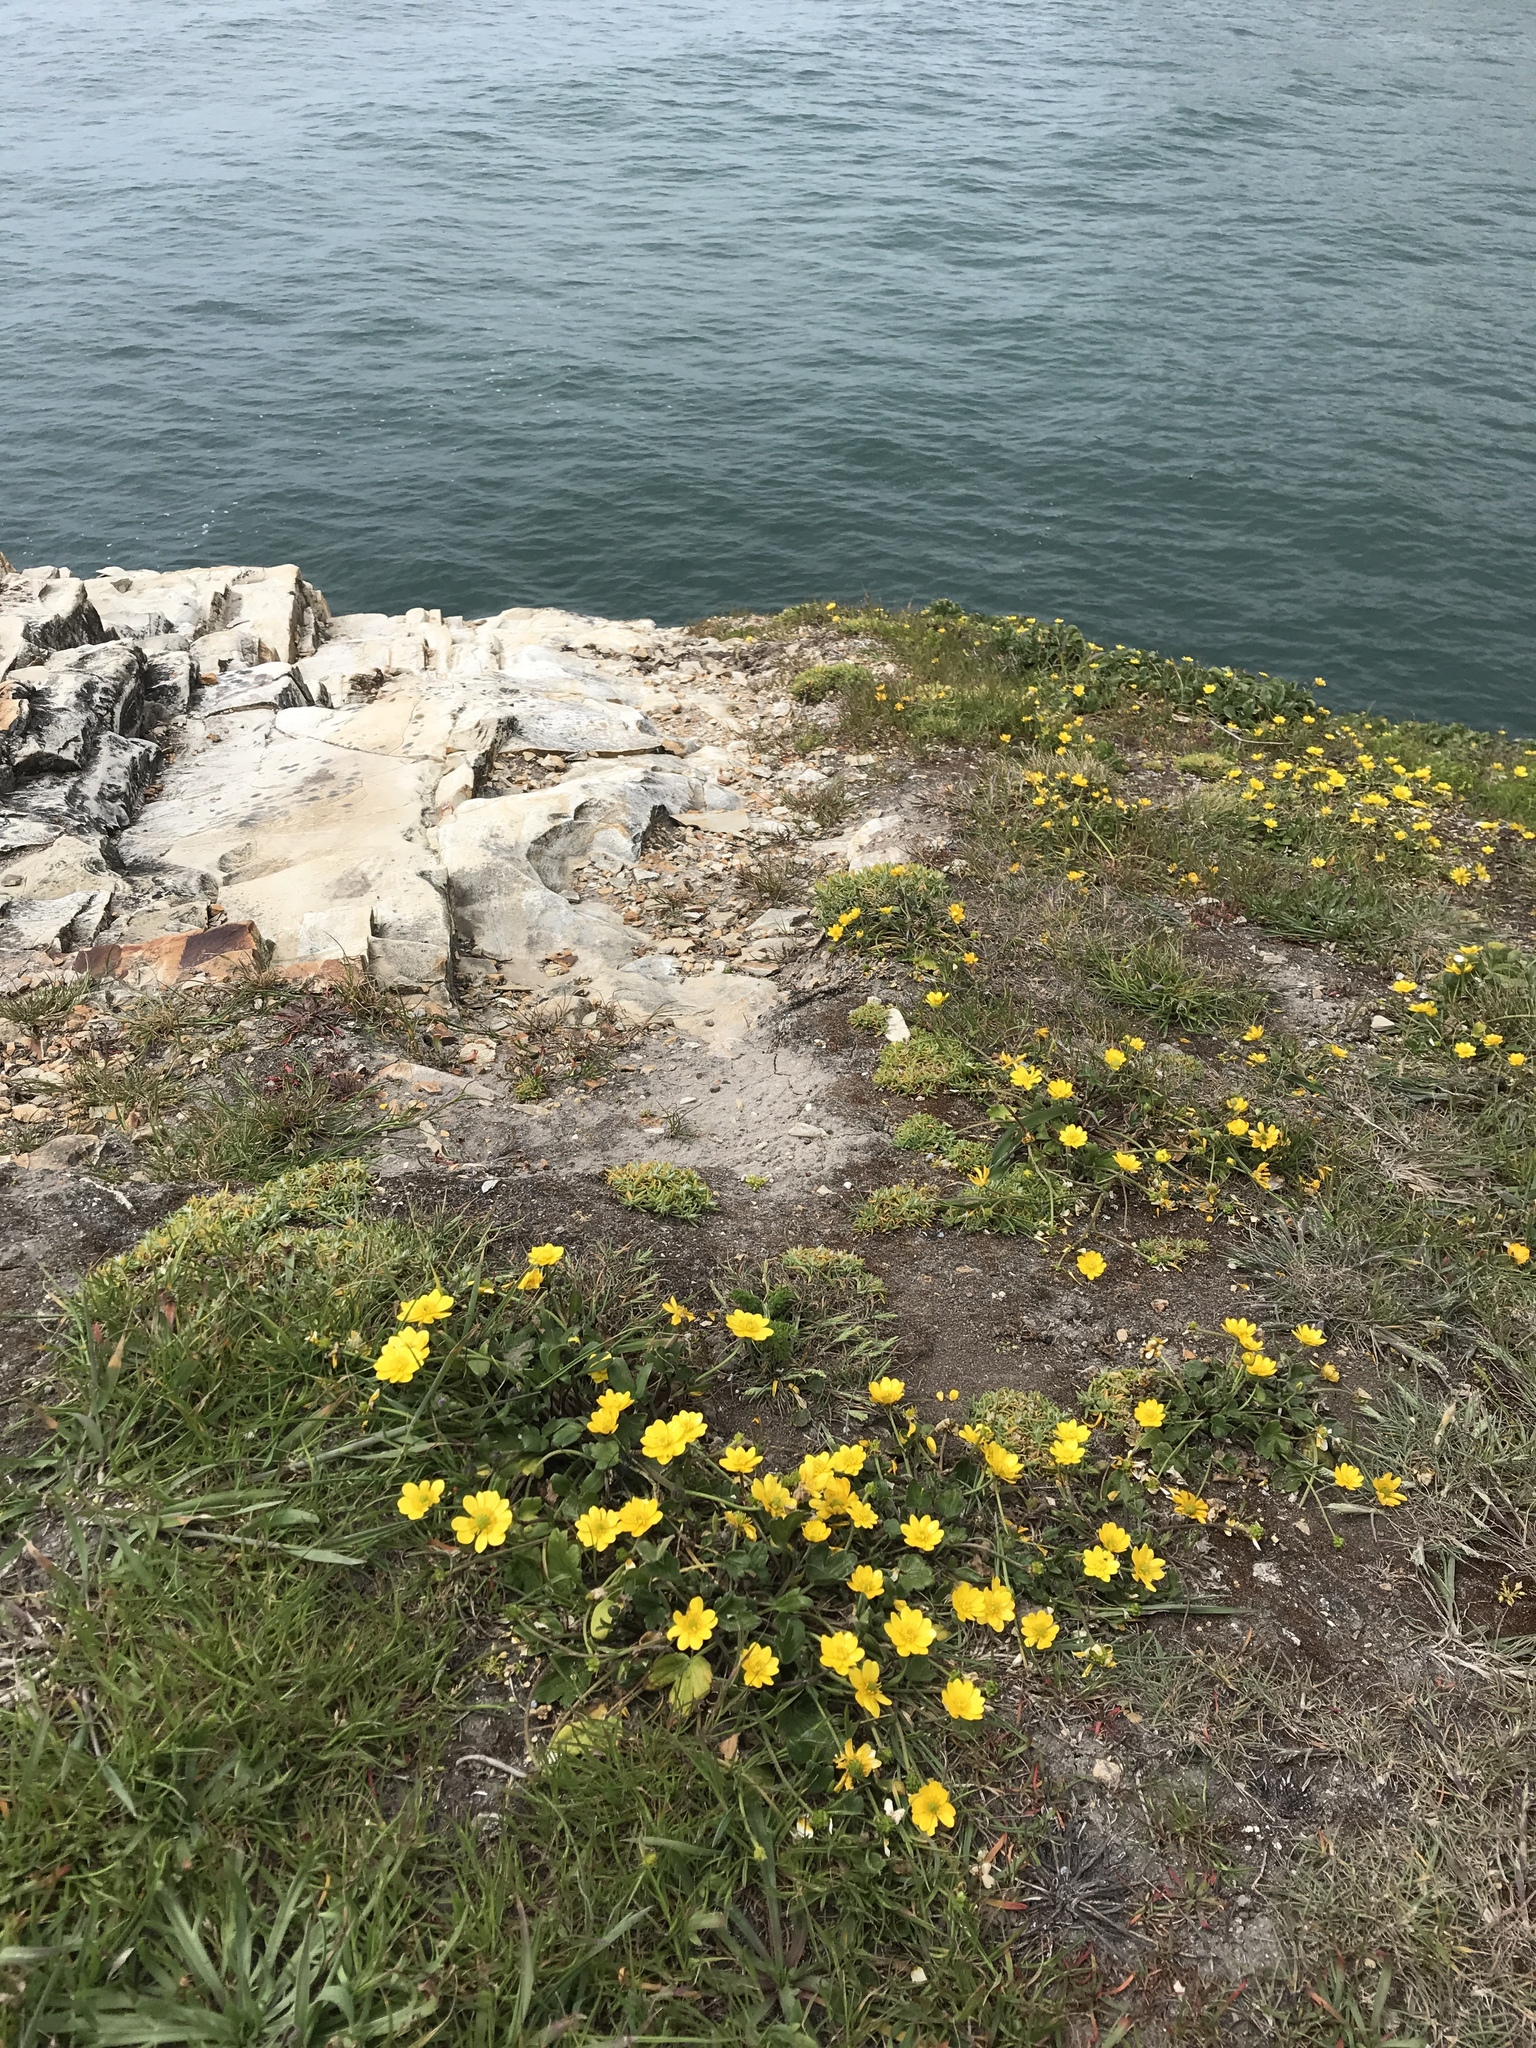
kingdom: Plantae
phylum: Tracheophyta
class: Magnoliopsida
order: Ranunculales
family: Ranunculaceae
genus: Ranunculus
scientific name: Ranunculus californicus
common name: California buttercup
